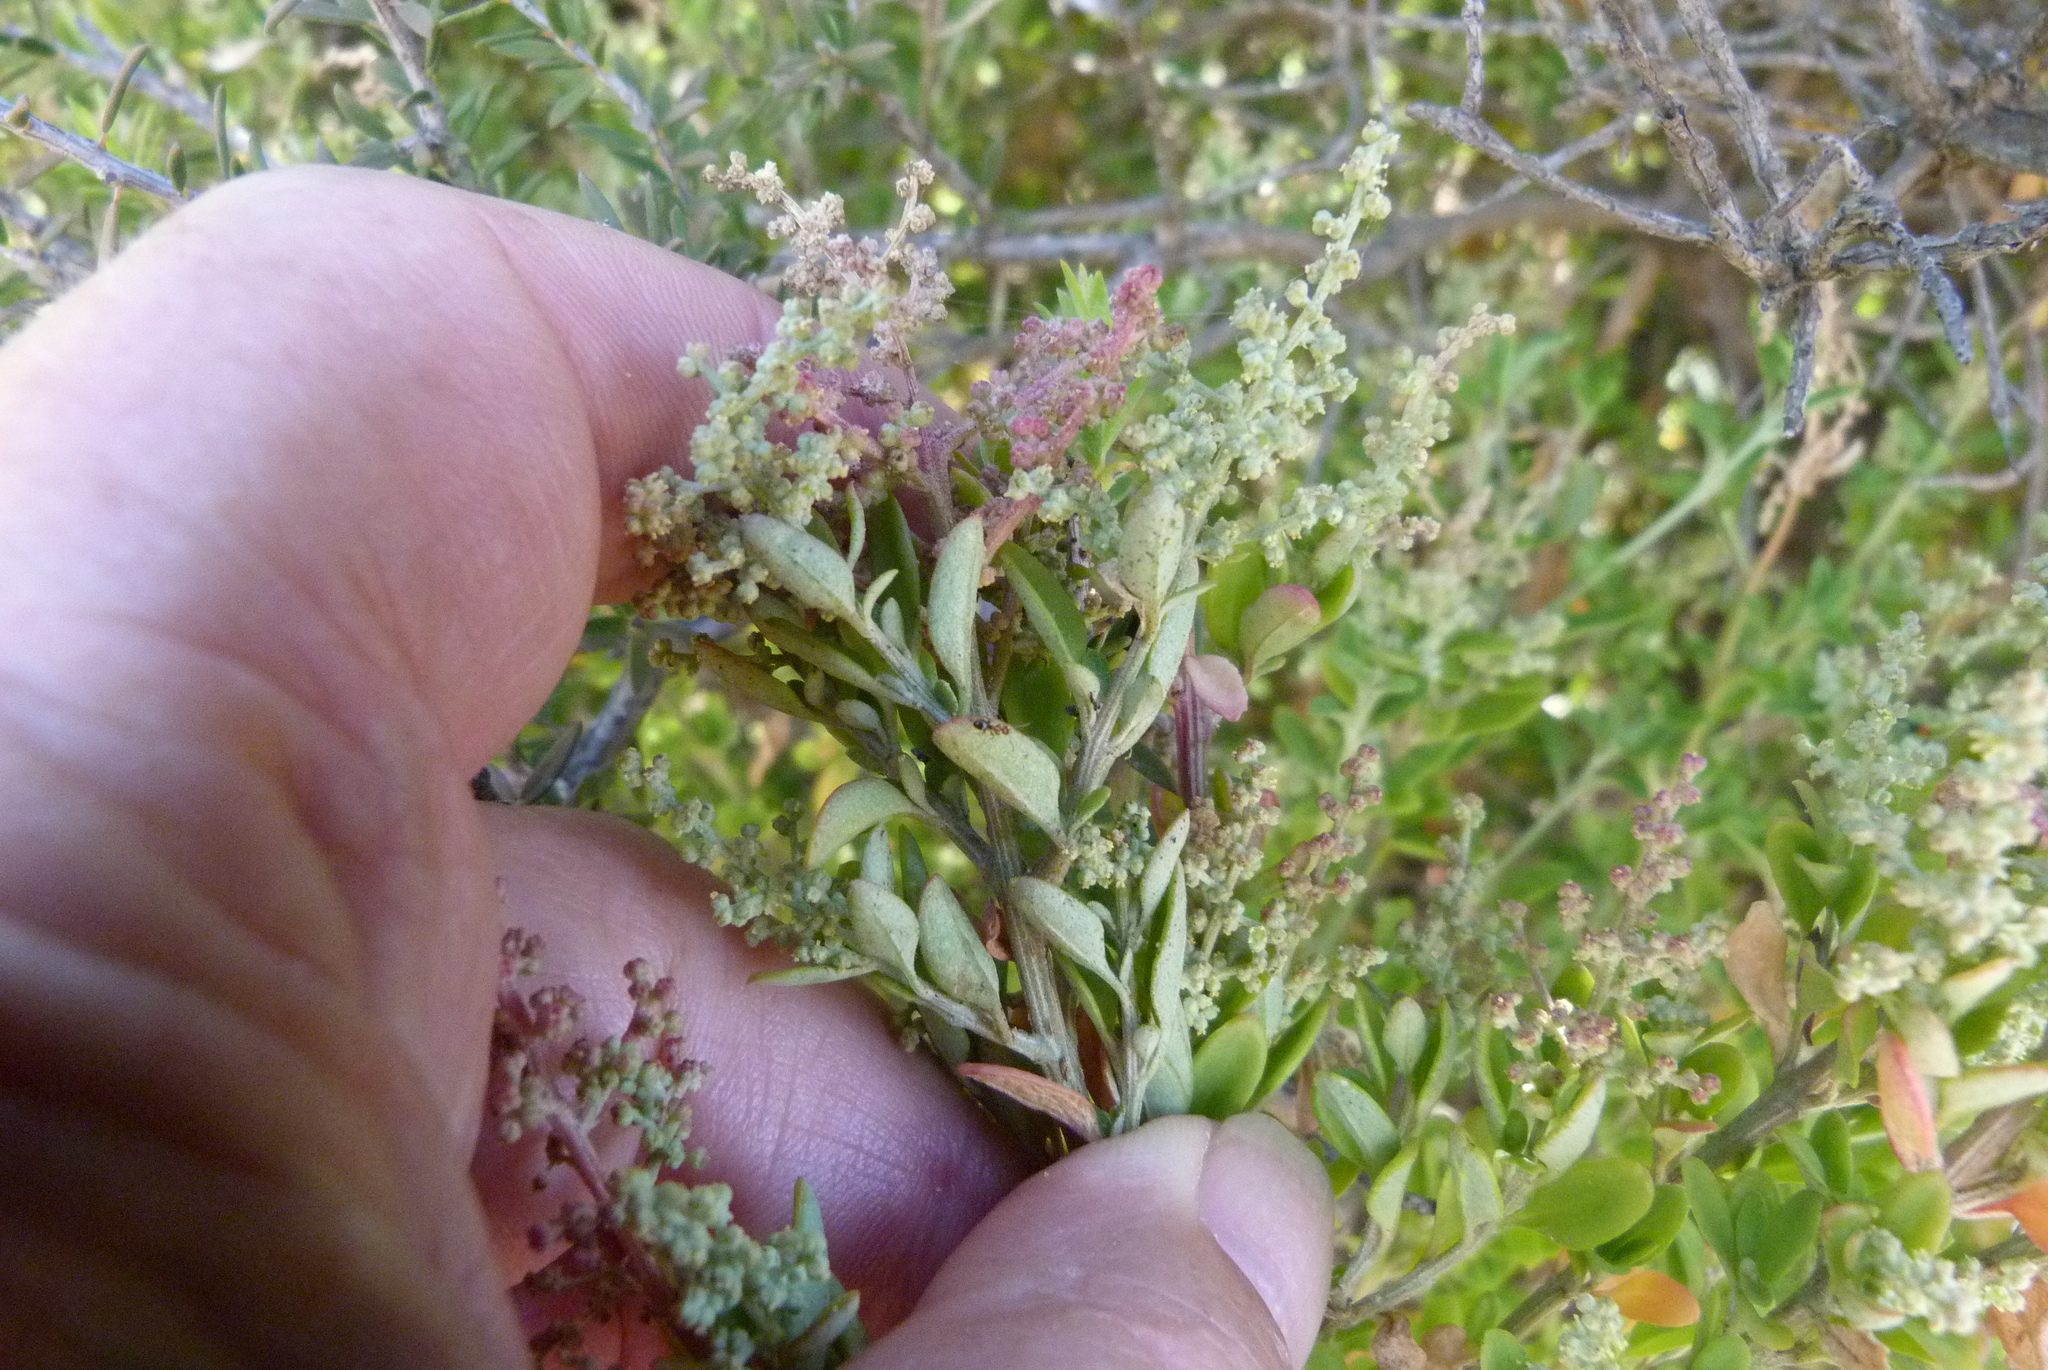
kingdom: Plantae
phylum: Tracheophyta
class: Magnoliopsida
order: Caryophyllales
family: Amaranthaceae
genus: Chenopodium
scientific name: Chenopodium candolleanum
